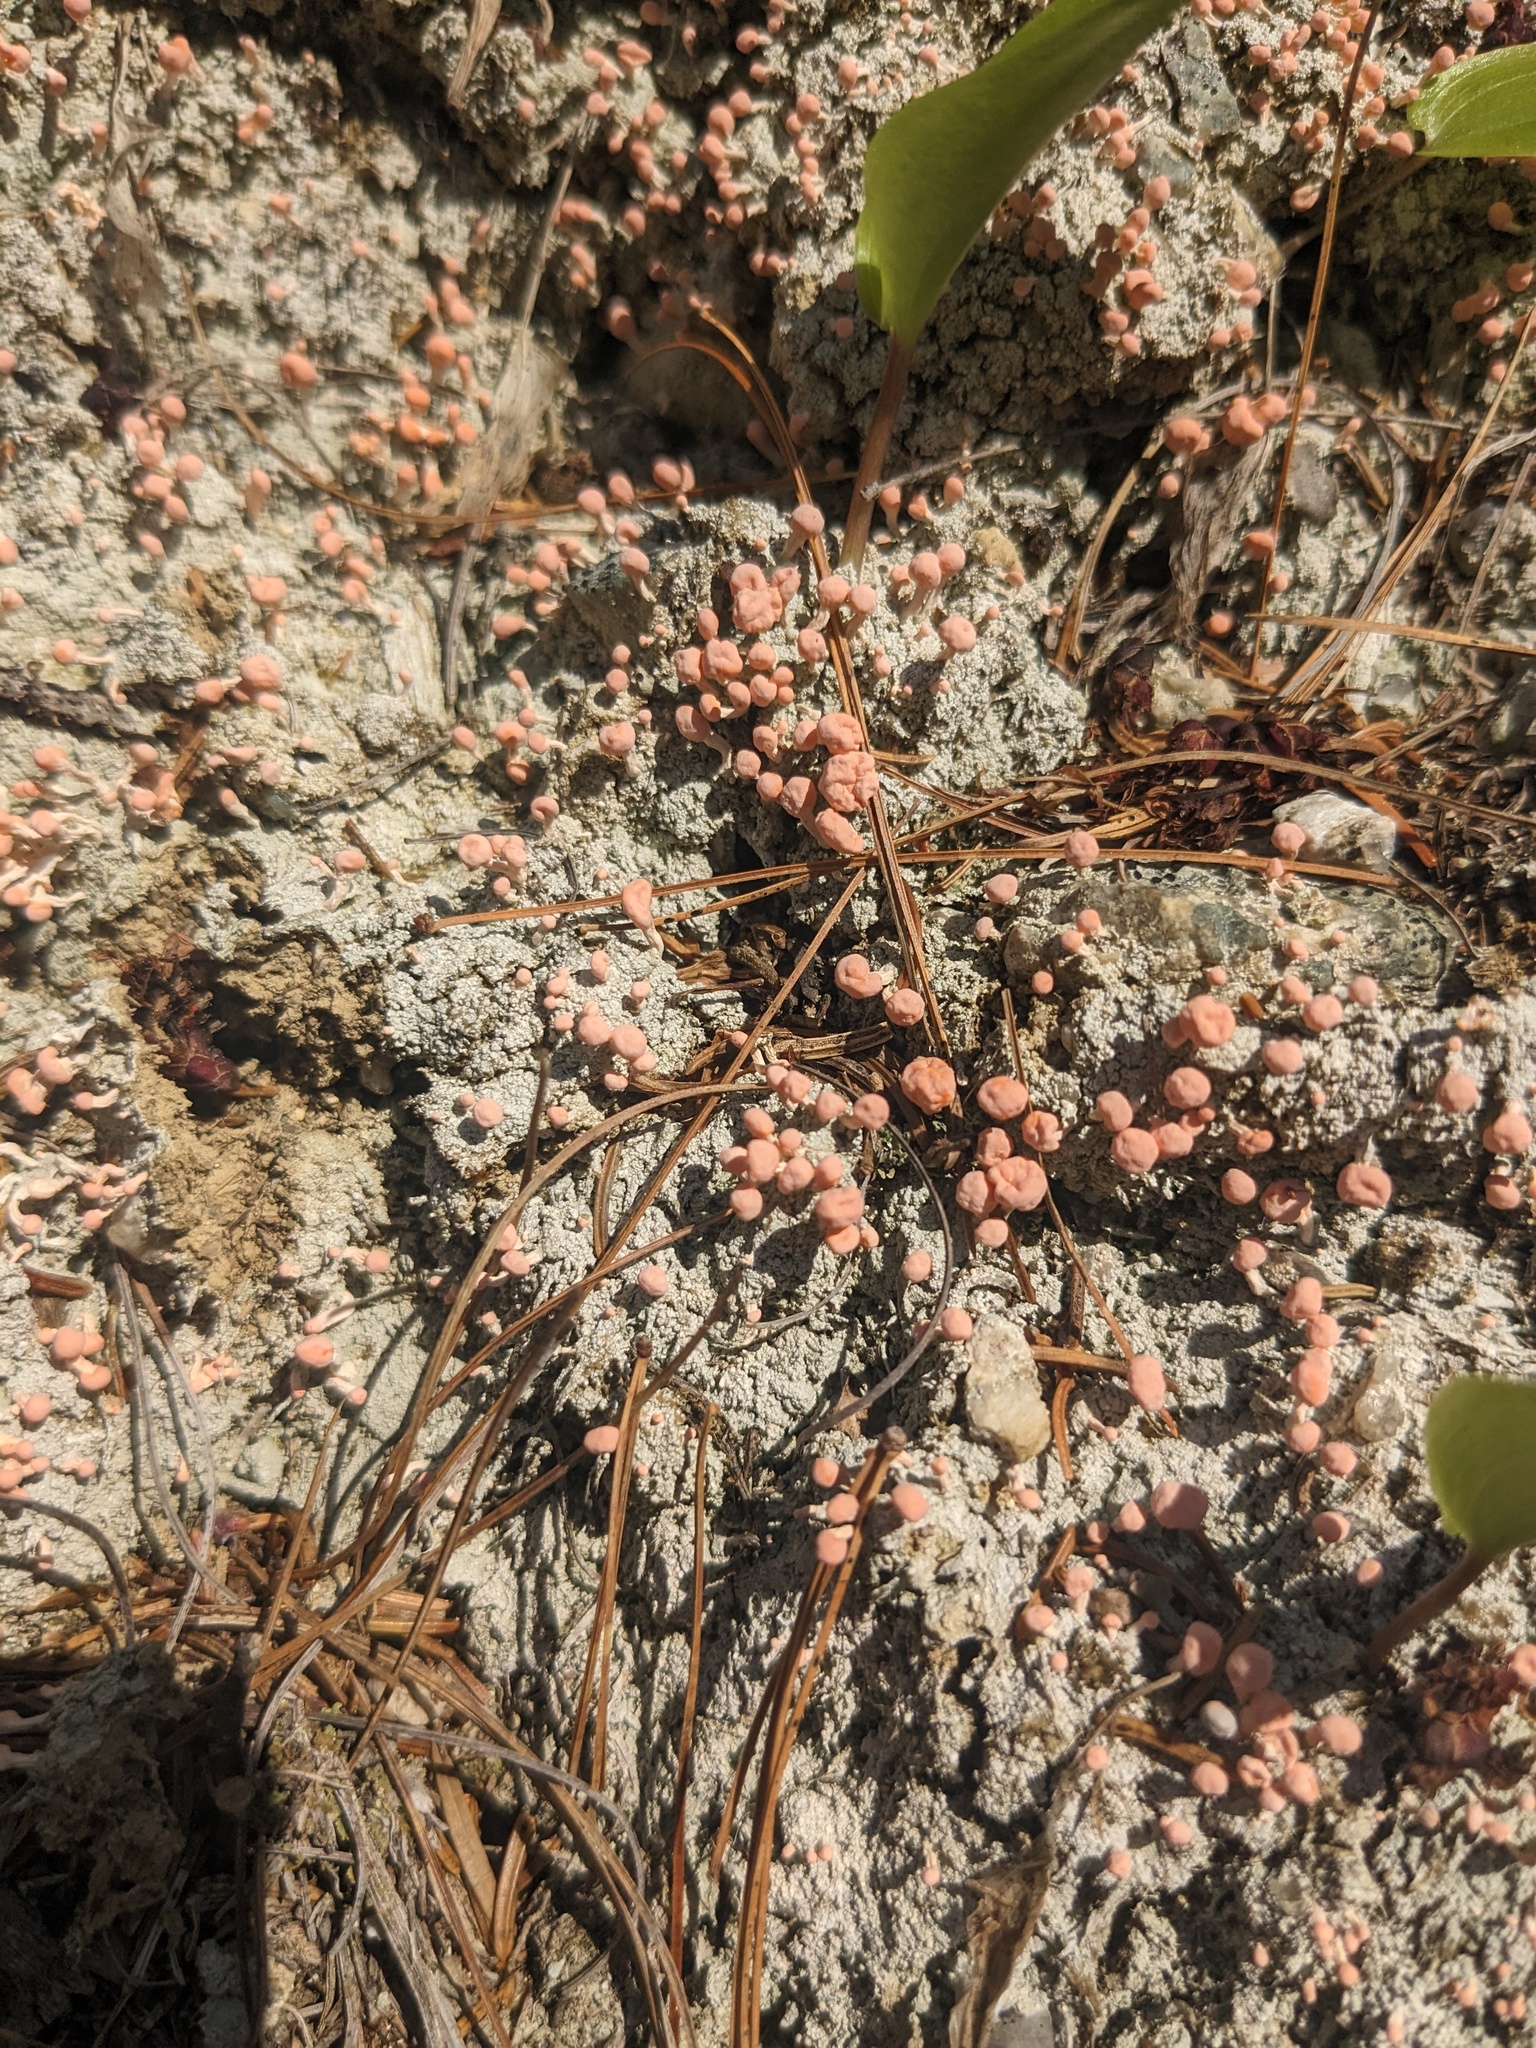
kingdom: Fungi
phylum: Ascomycota
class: Lecanoromycetes
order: Pertusariales
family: Icmadophilaceae
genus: Dibaeis
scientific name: Dibaeis baeomyces
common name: Pink earth lichen
